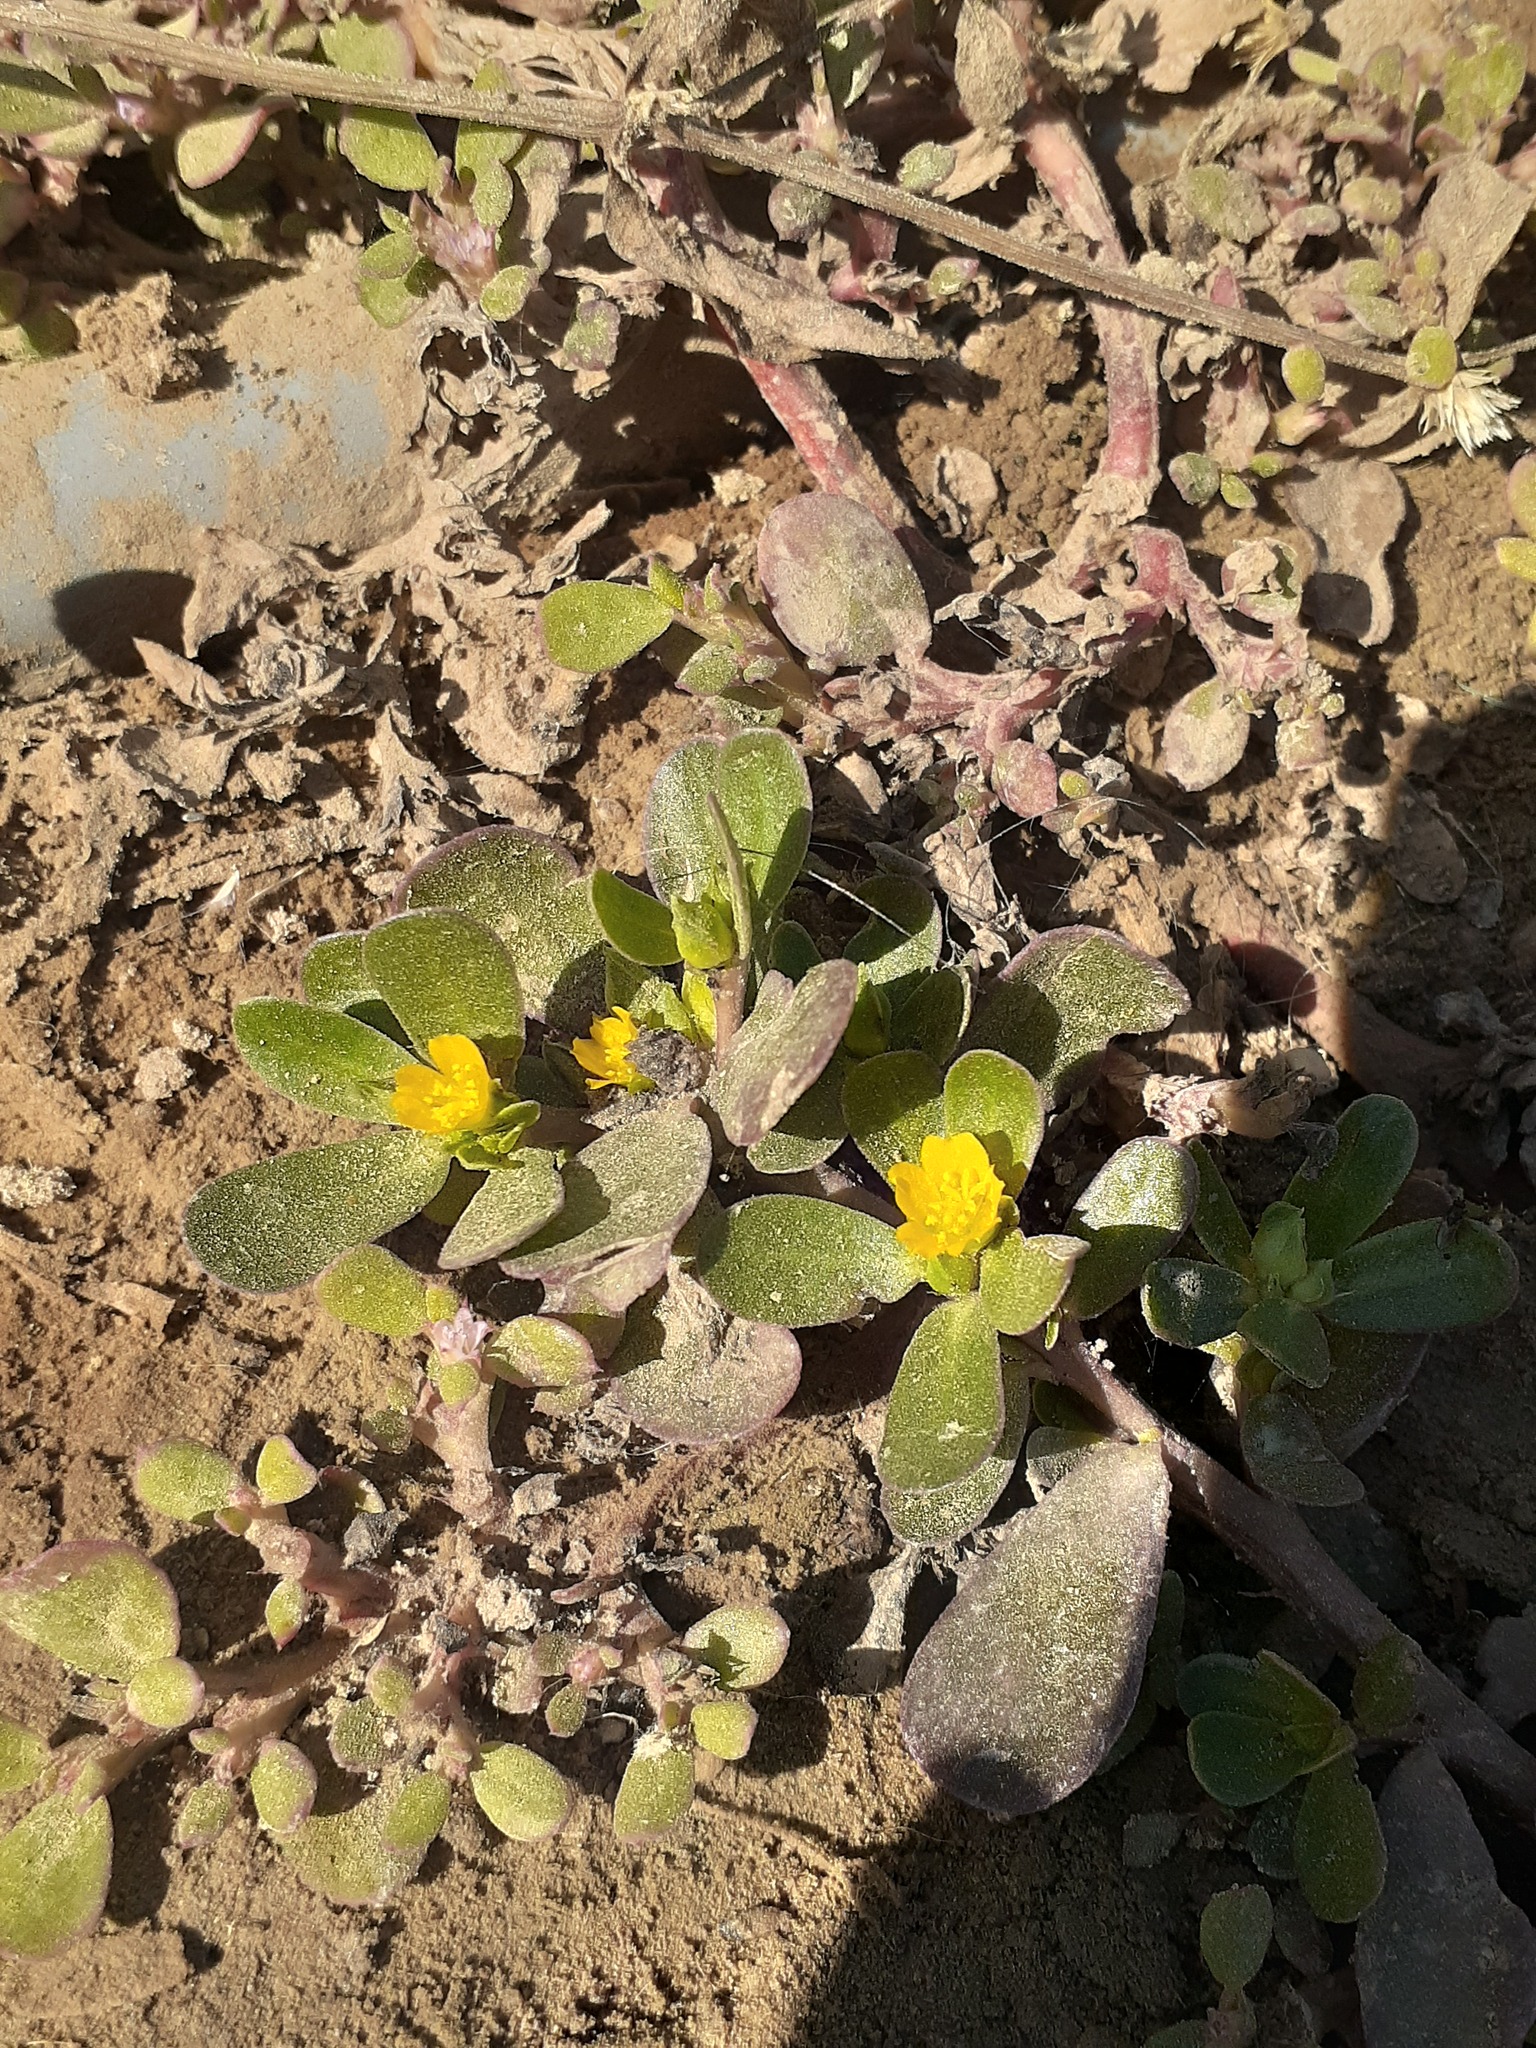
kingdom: Plantae
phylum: Tracheophyta
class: Magnoliopsida
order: Caryophyllales
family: Portulacaceae
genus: Portulaca
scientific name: Portulaca oleracea
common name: Common purslane
